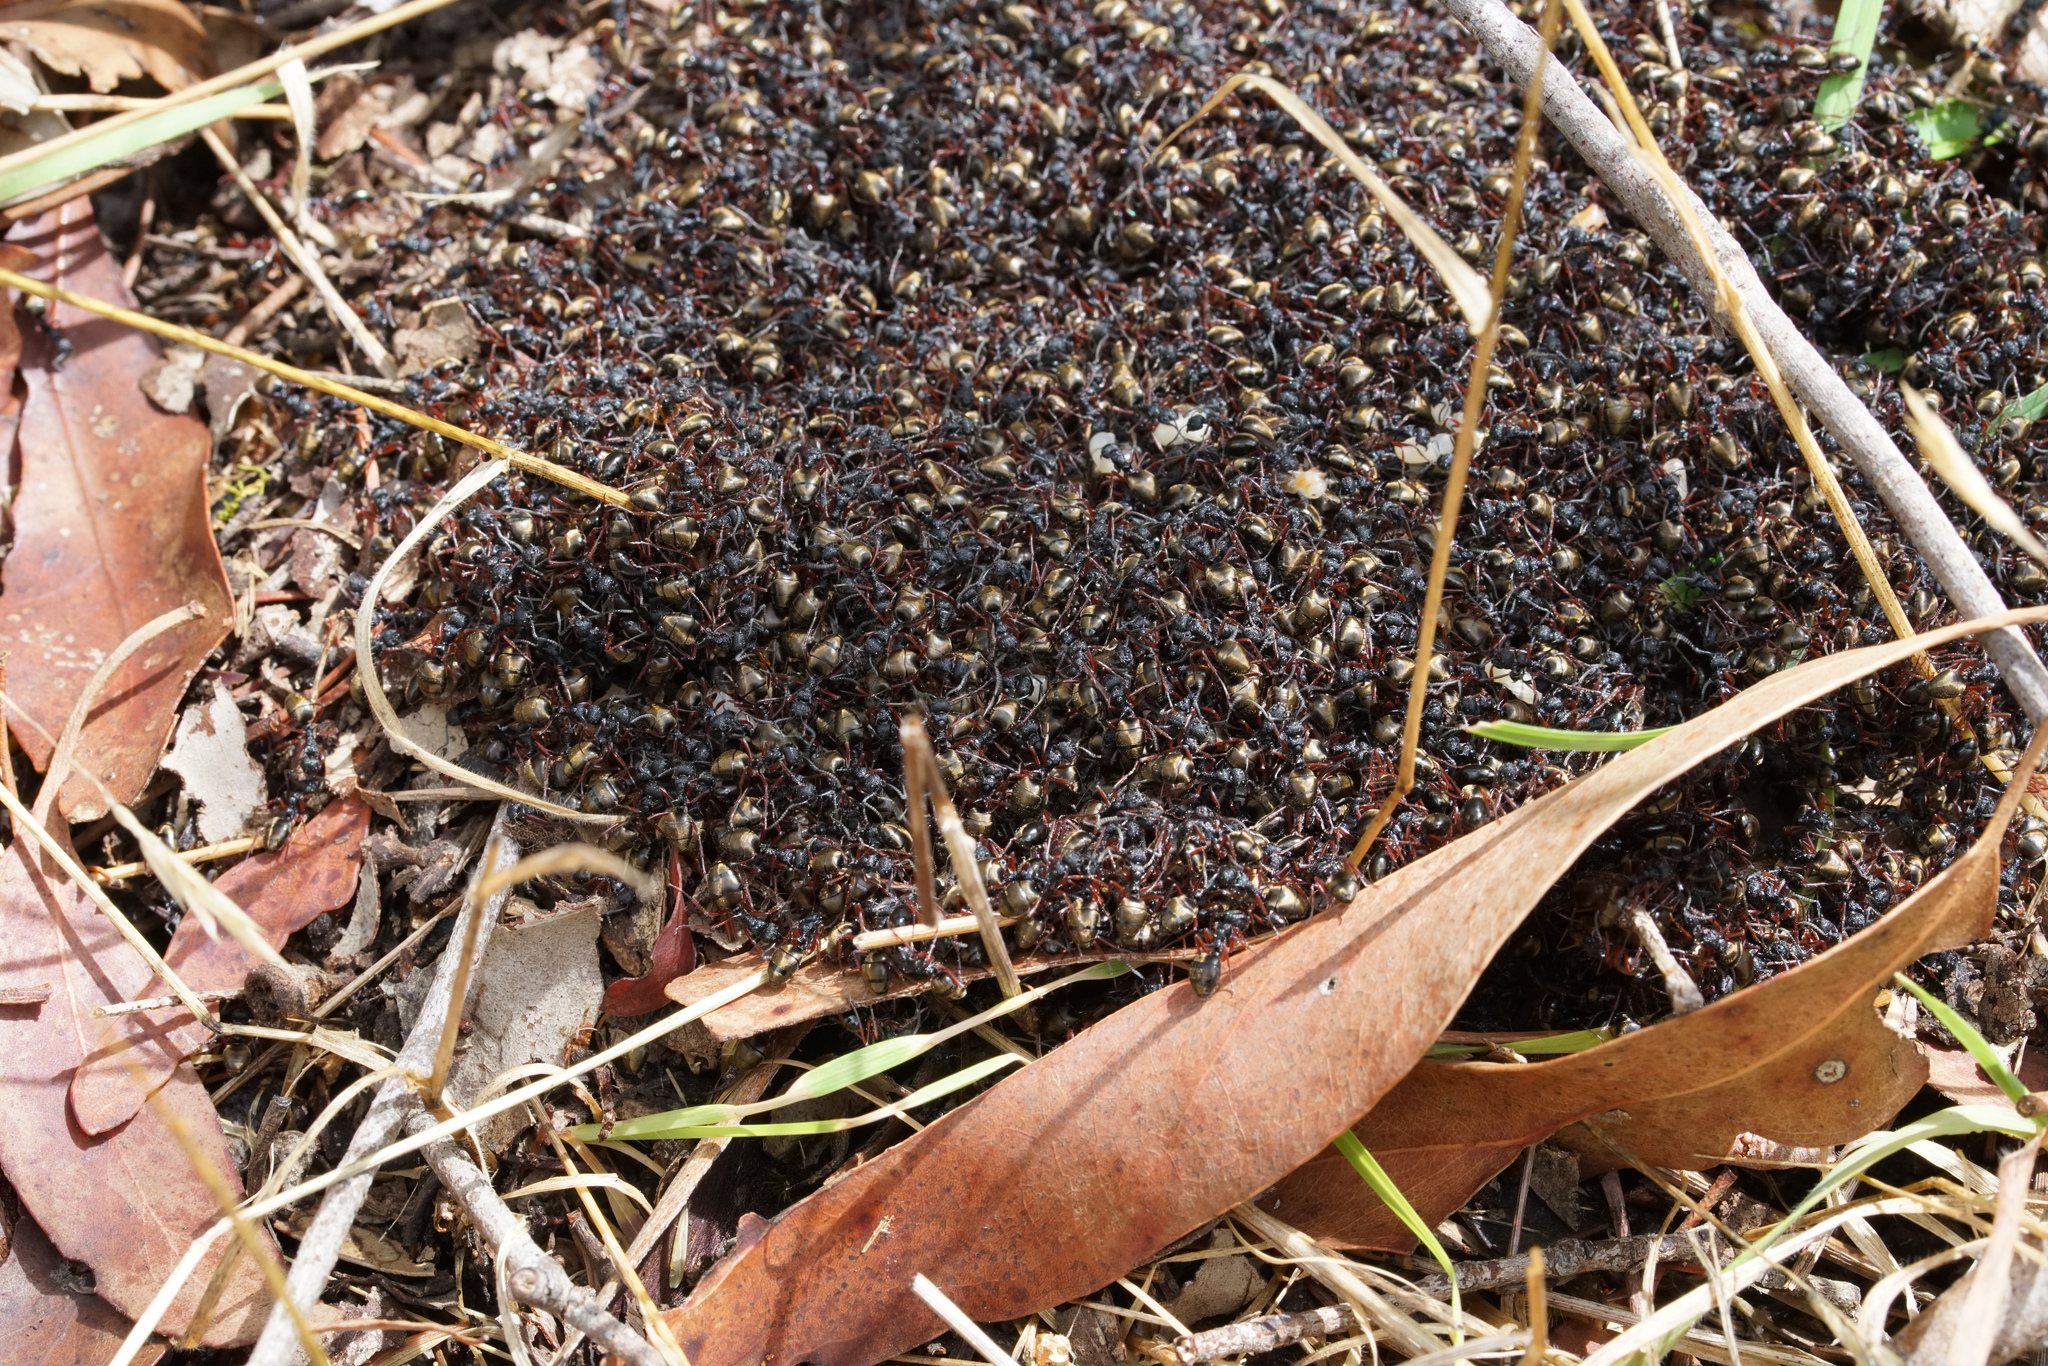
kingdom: Animalia
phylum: Arthropoda
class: Insecta
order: Hymenoptera
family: Formicidae
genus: Dolichoderus
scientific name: Dolichoderus doriae
